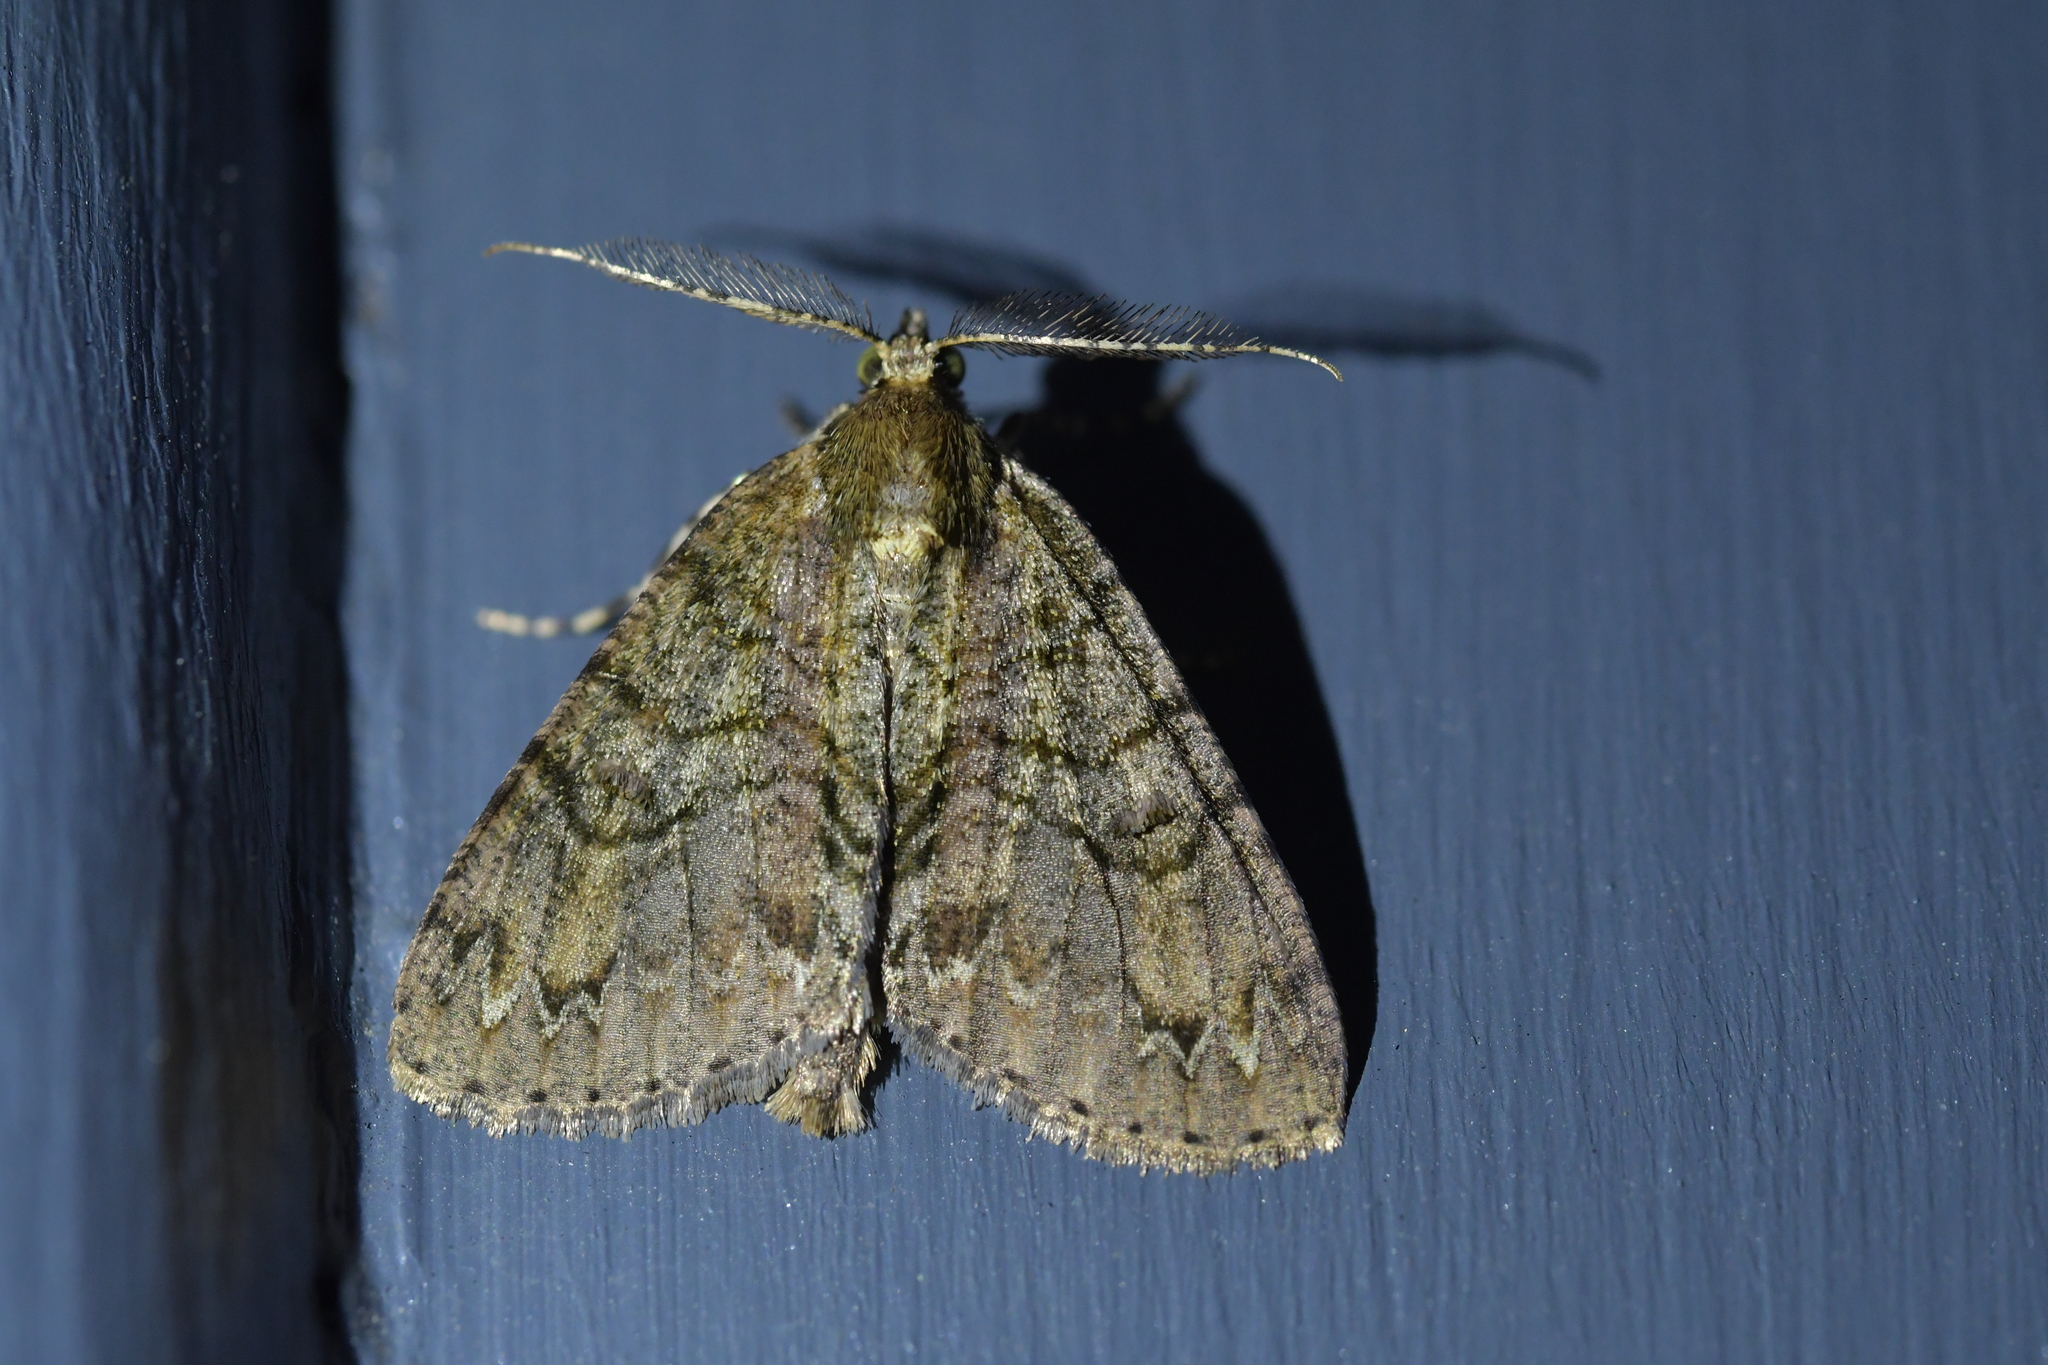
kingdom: Animalia
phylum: Arthropoda
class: Insecta
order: Lepidoptera
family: Geometridae
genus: Pseudocoremia
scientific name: Pseudocoremia suavis
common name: Common forest looper
